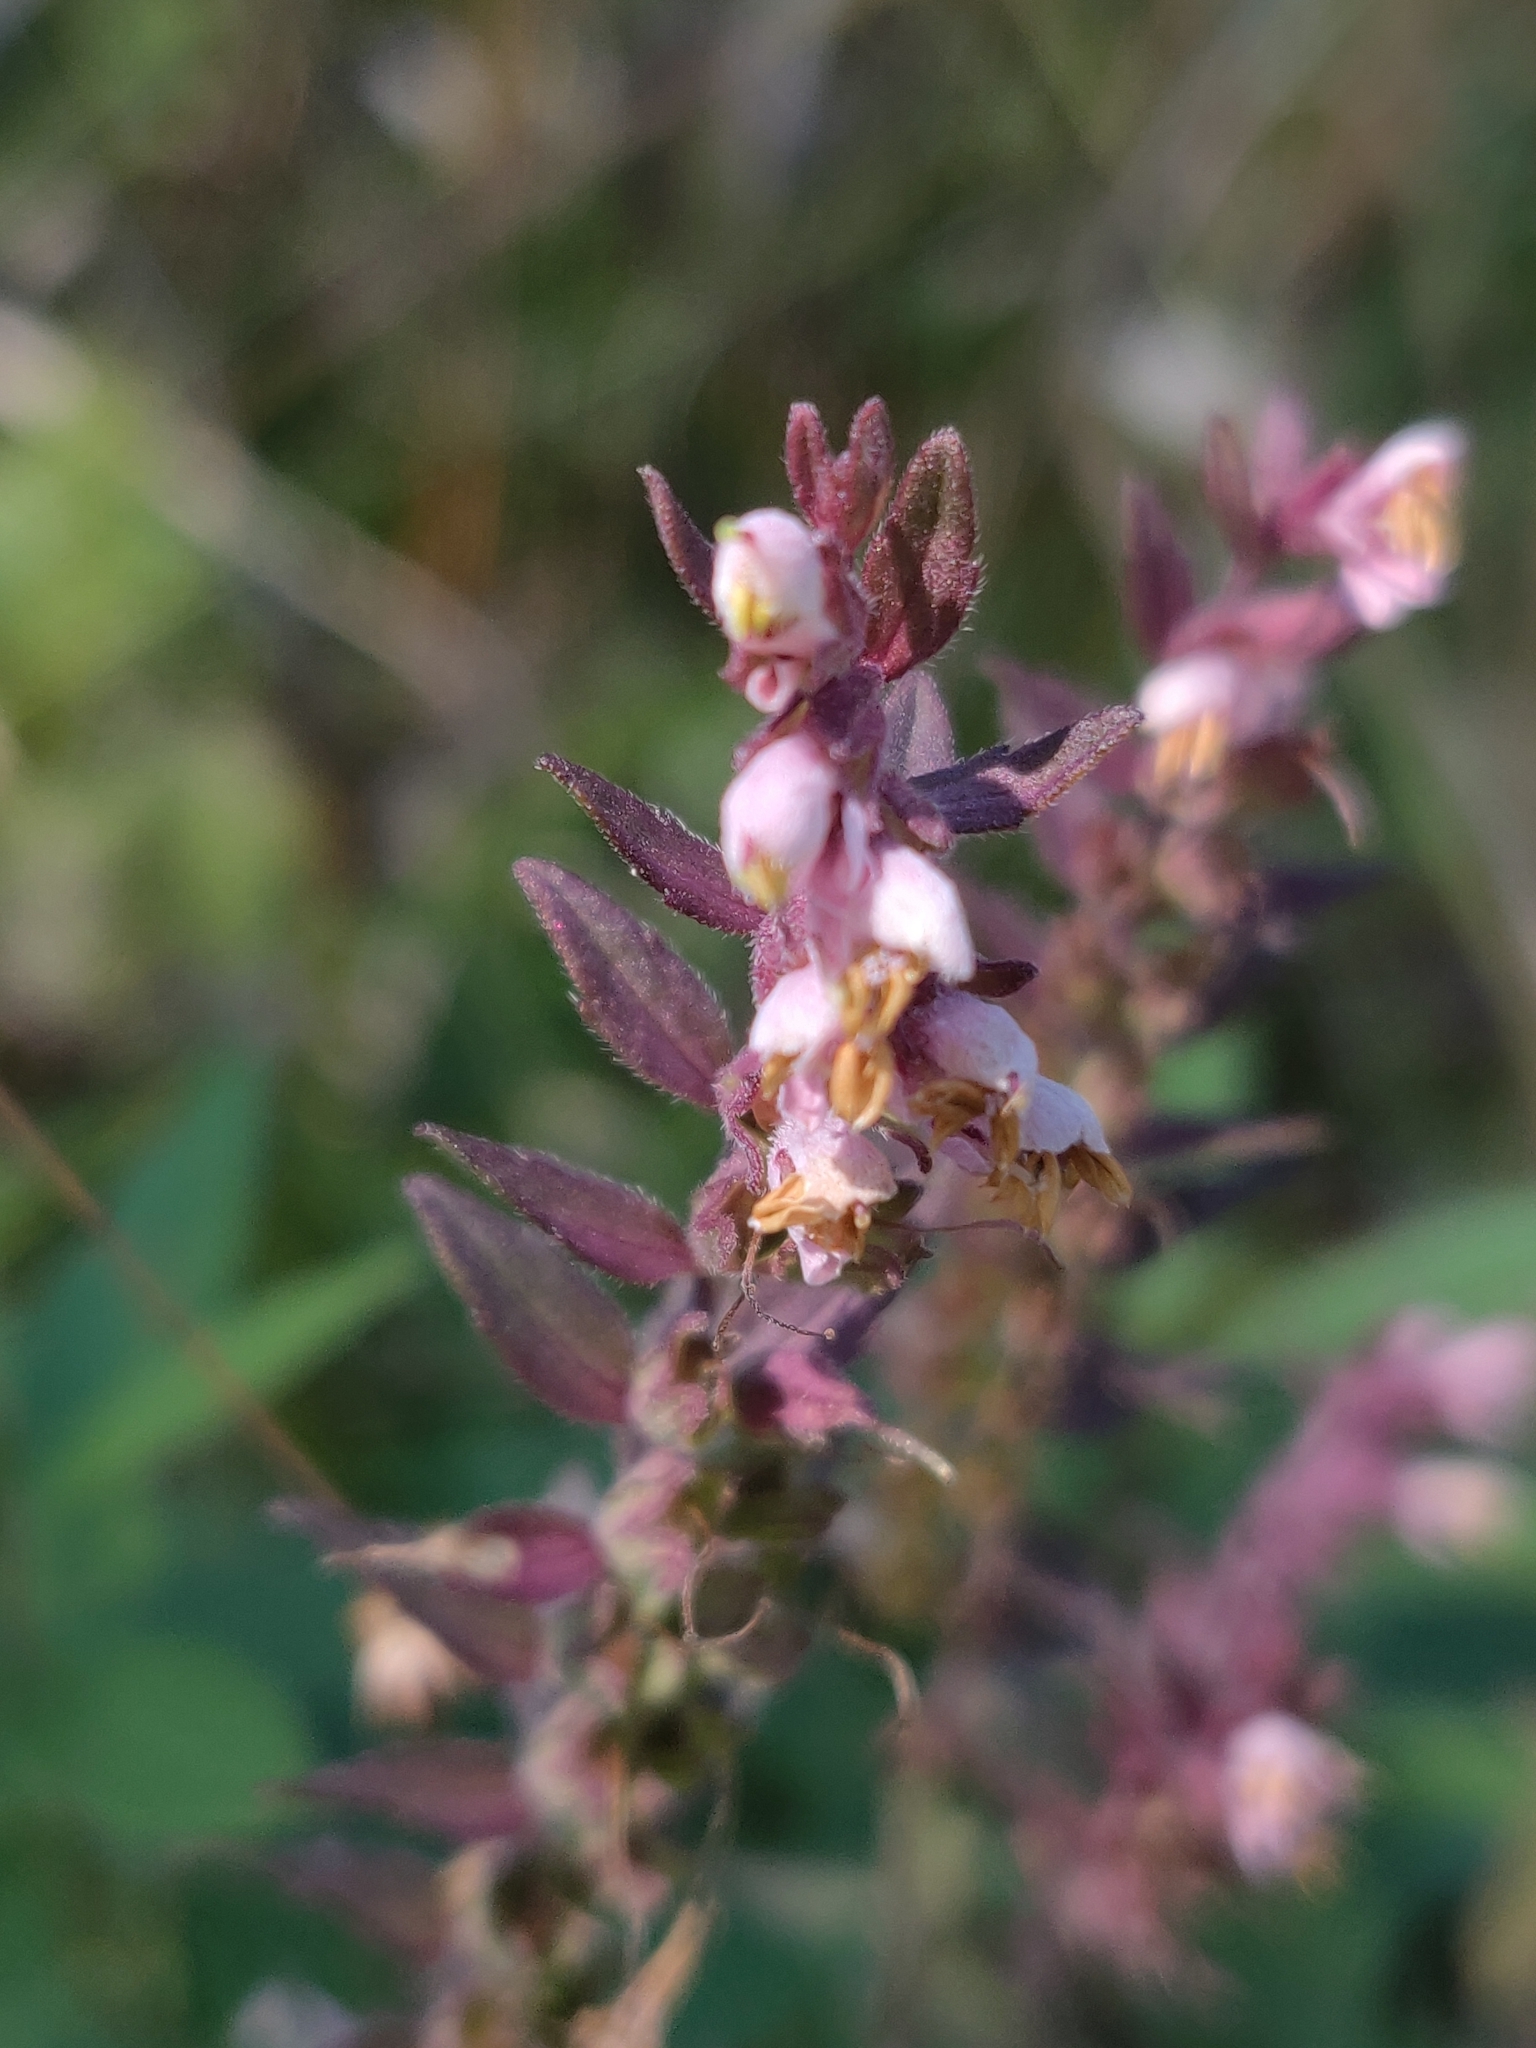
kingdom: Plantae
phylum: Tracheophyta
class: Magnoliopsida
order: Lamiales
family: Orobanchaceae
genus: Odontites
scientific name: Odontites vulgaris
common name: Broomrape
